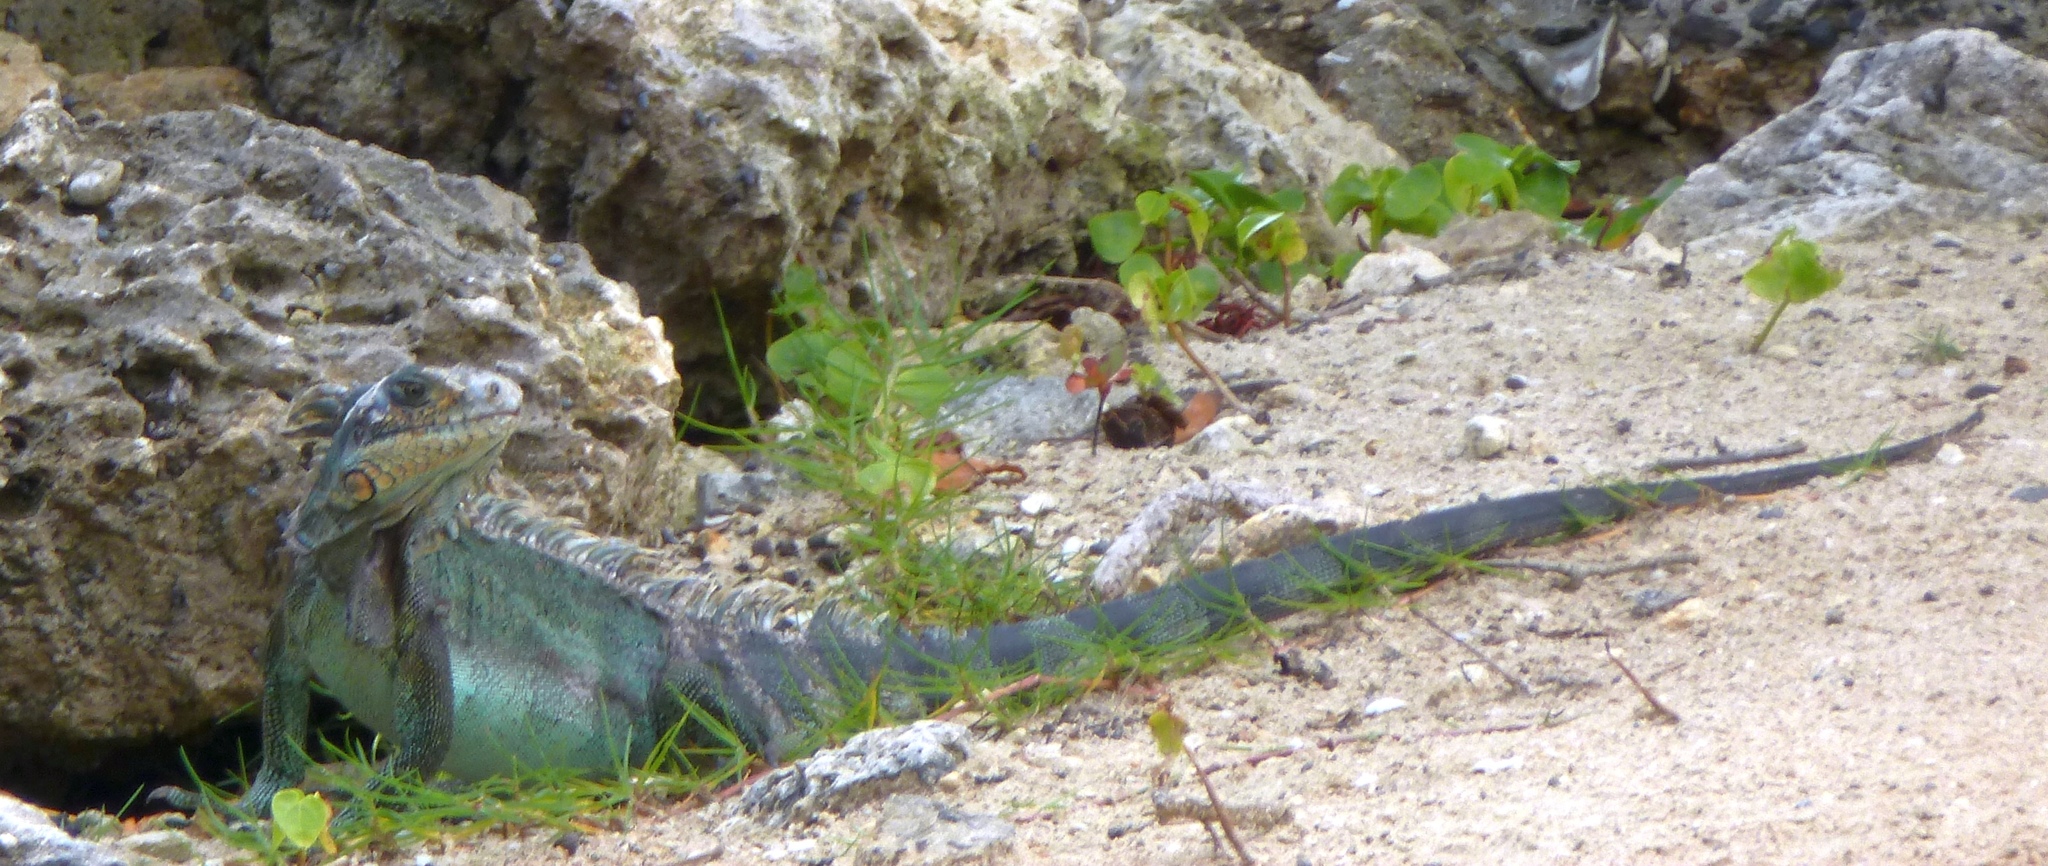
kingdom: Animalia
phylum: Chordata
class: Squamata
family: Iguanidae
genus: Iguana
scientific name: Iguana iguana
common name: Green iguana
